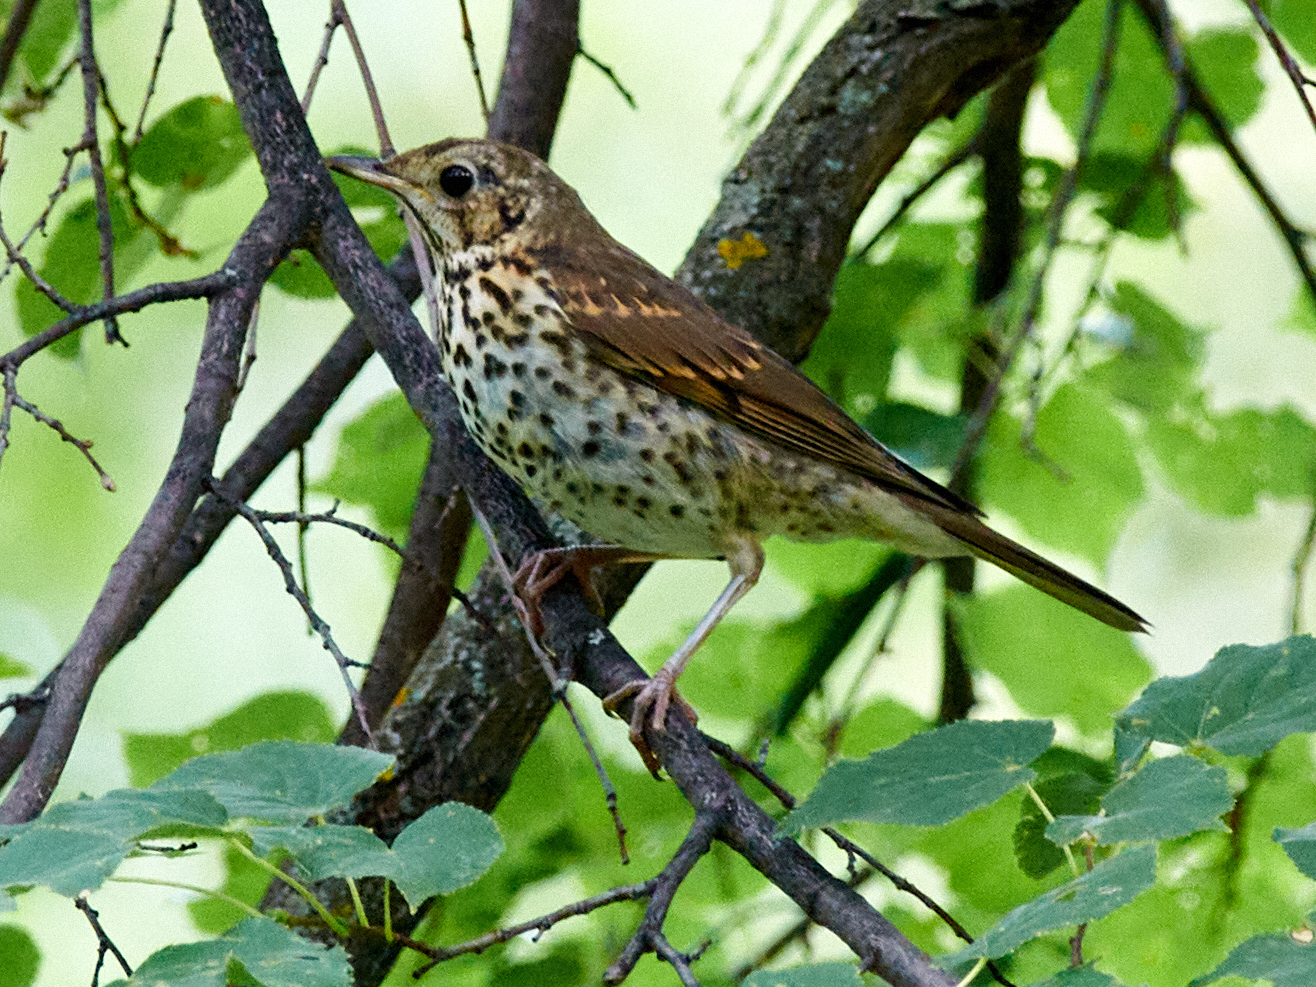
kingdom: Animalia
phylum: Chordata
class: Aves
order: Passeriformes
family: Turdidae
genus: Turdus
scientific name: Turdus philomelos
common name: Song thrush
